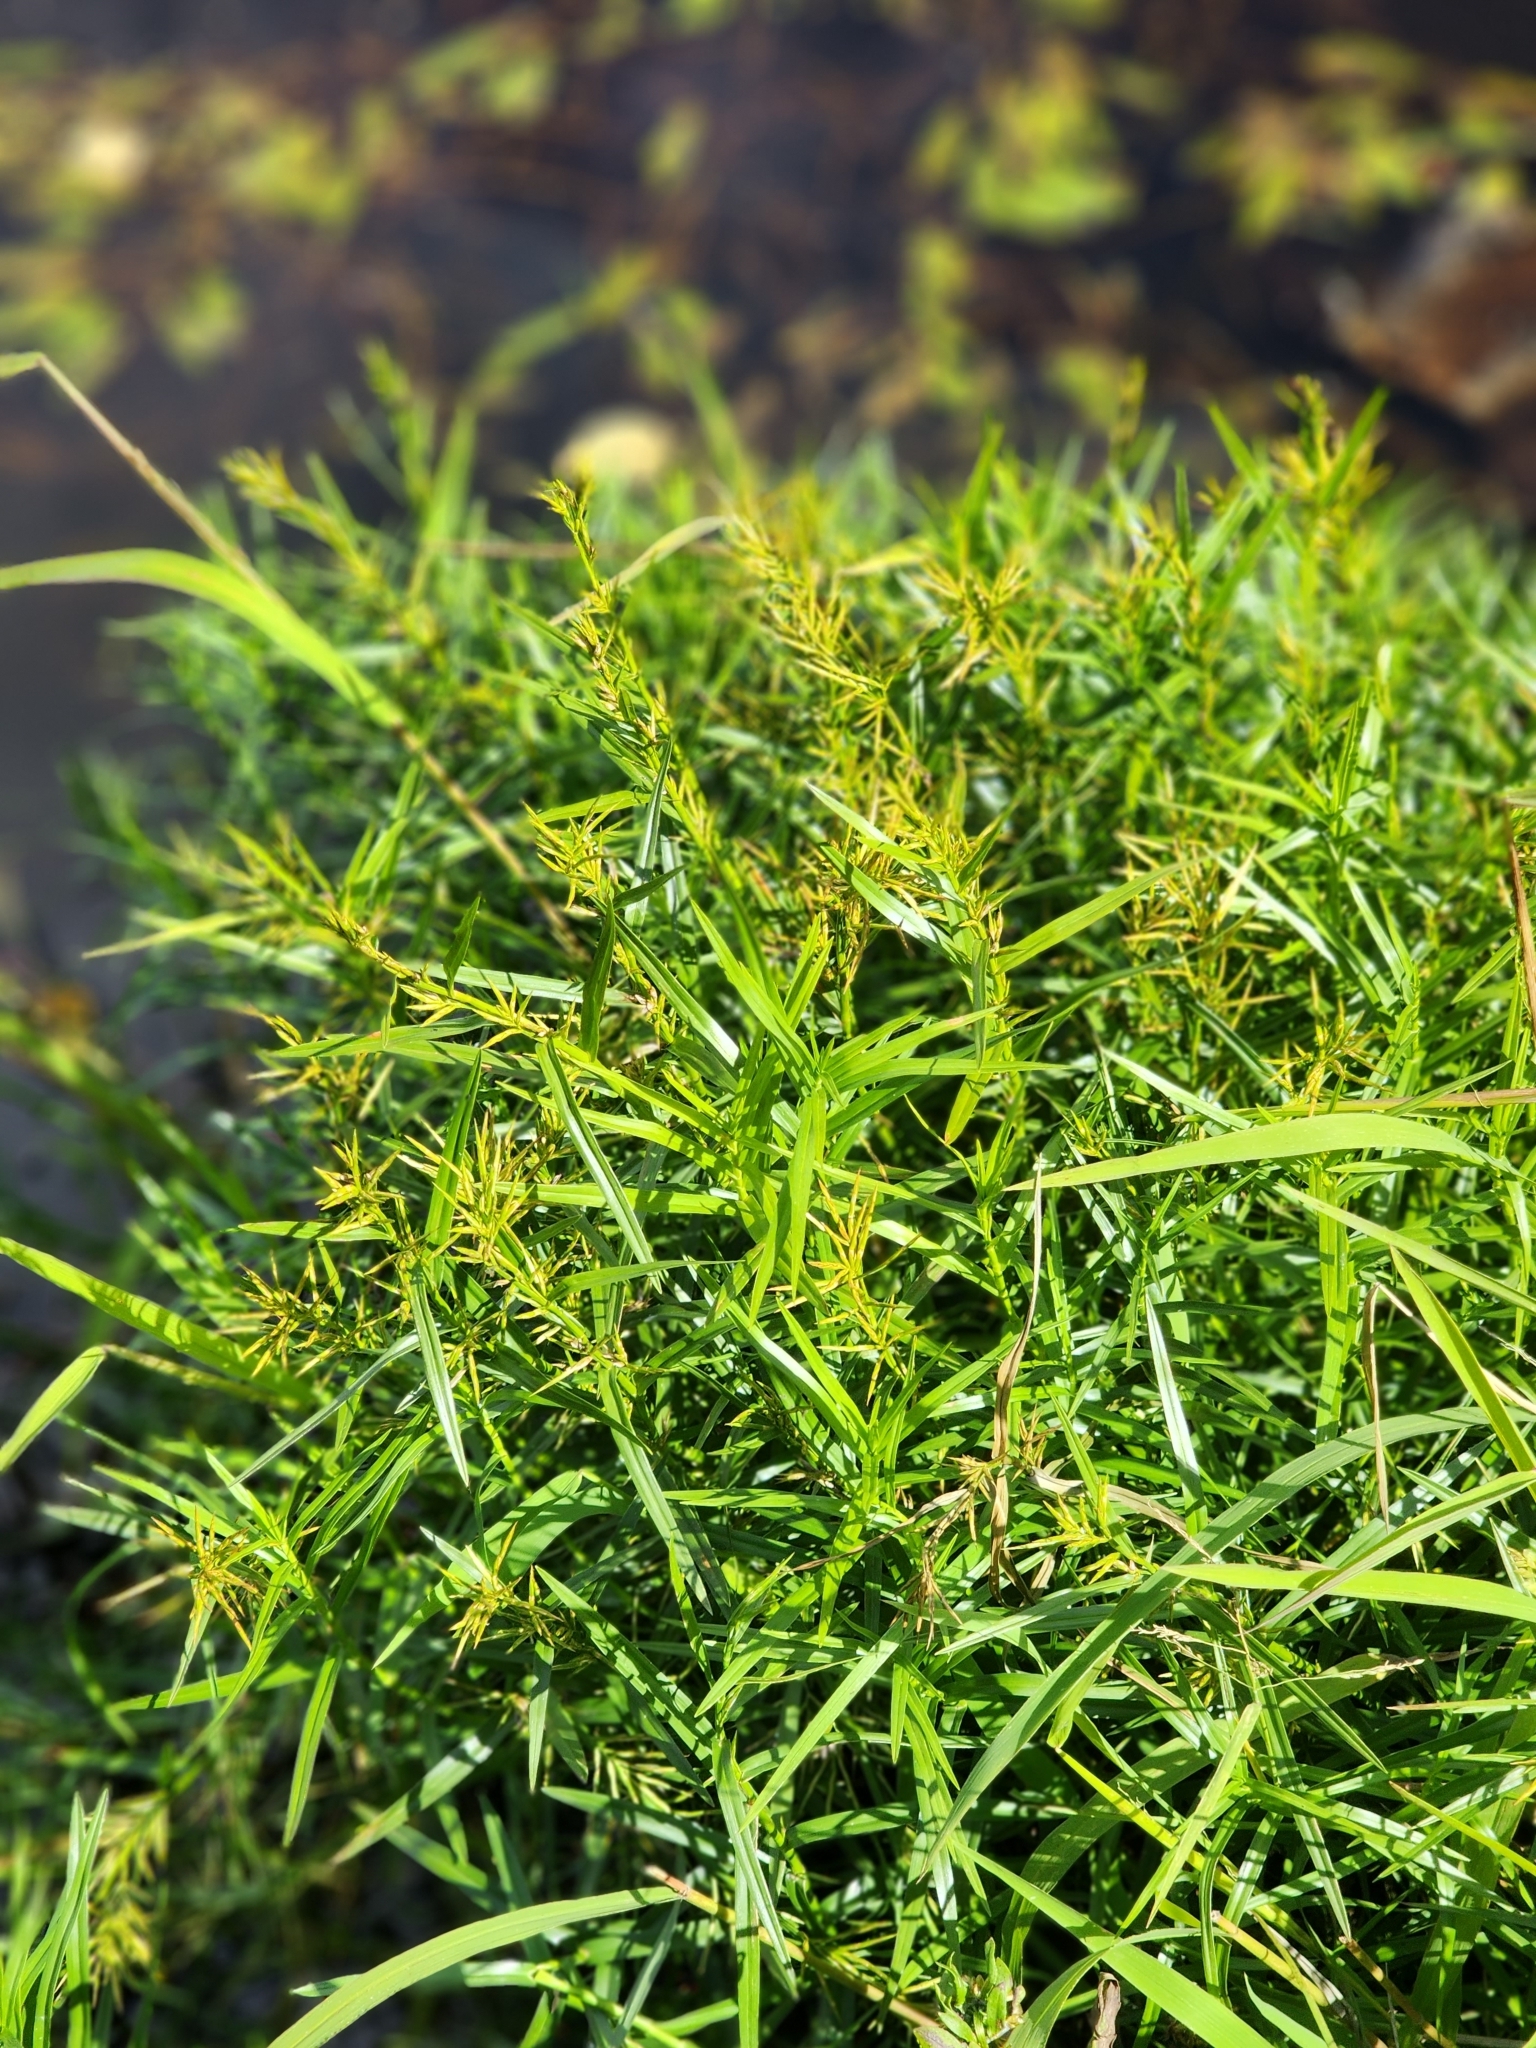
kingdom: Plantae
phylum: Tracheophyta
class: Liliopsida
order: Poales
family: Cyperaceae
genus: Dulichium
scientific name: Dulichium arundinaceum
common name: Three-way sedge
